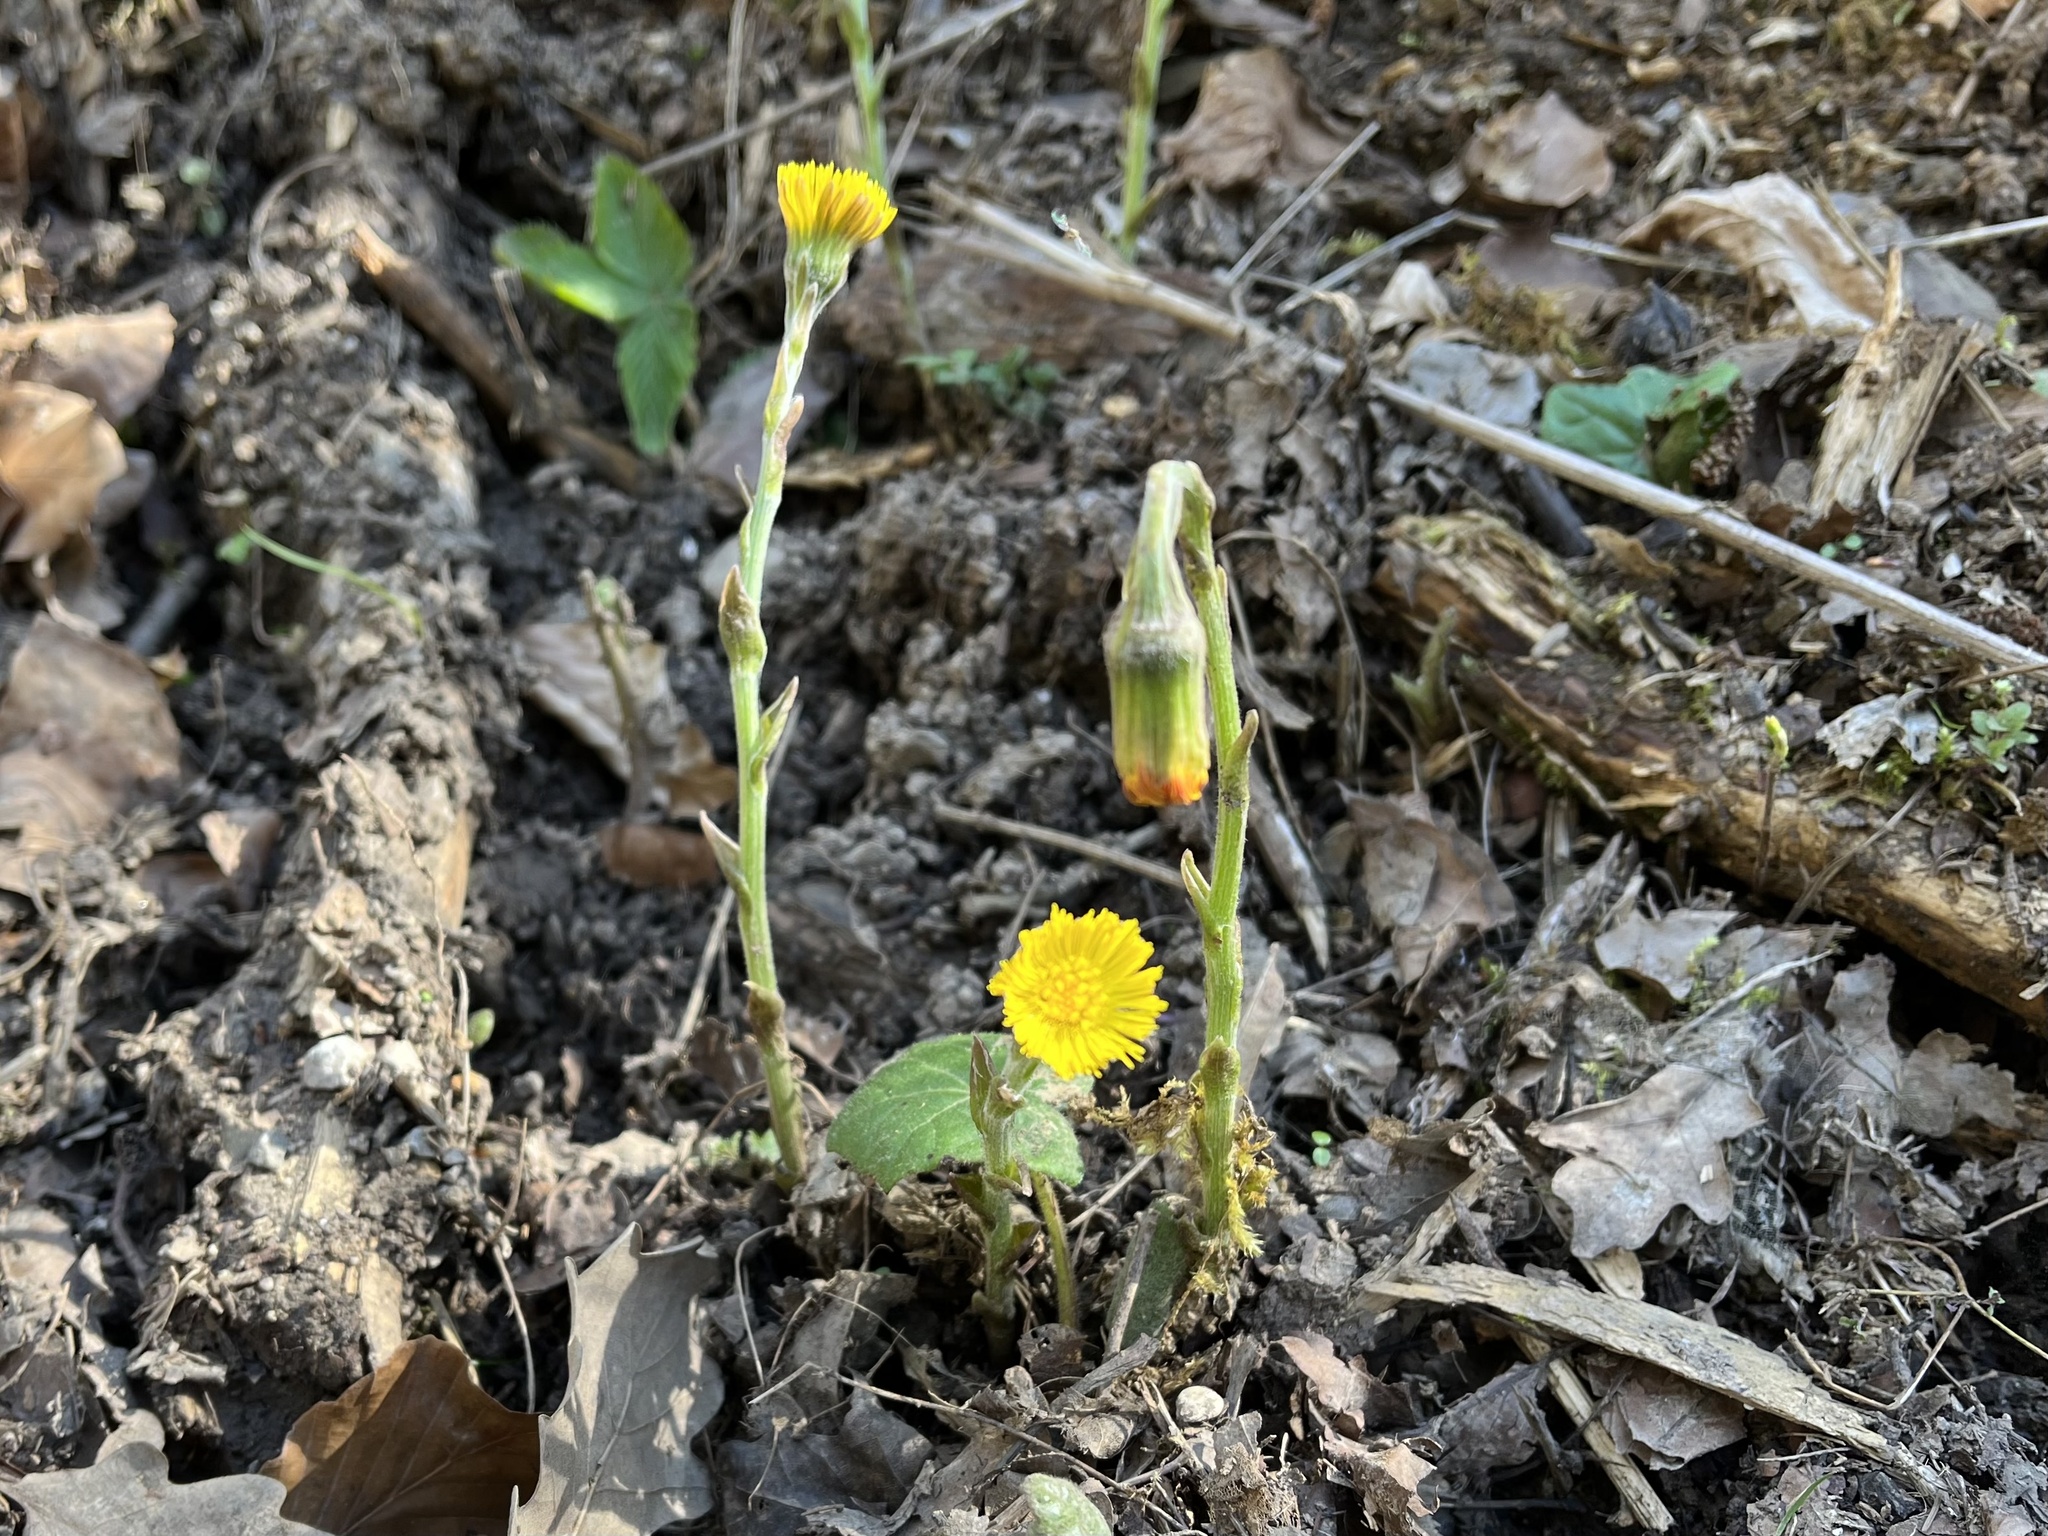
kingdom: Plantae
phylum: Tracheophyta
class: Magnoliopsida
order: Asterales
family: Asteraceae
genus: Tussilago
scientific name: Tussilago farfara
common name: Coltsfoot
